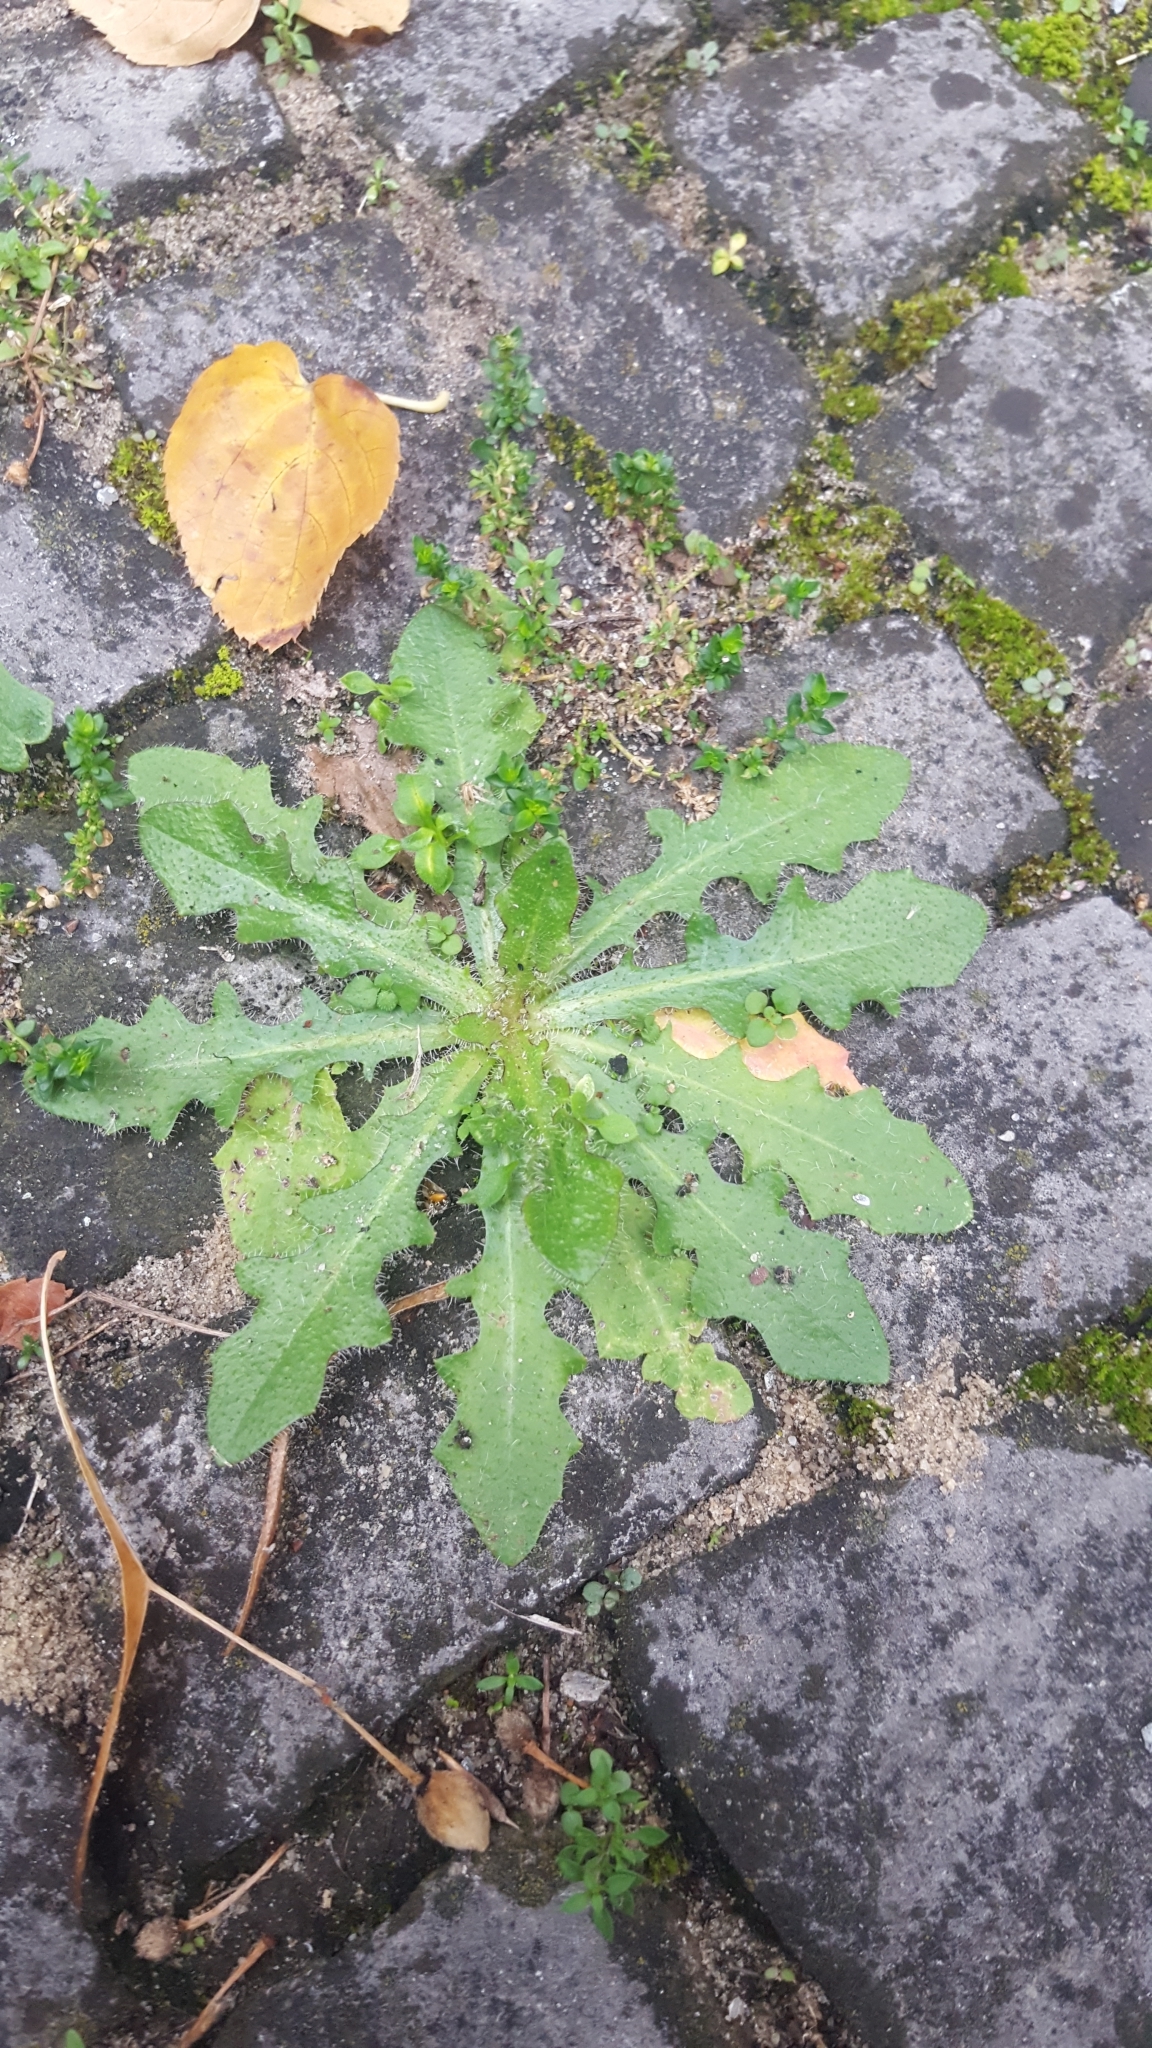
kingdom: Plantae
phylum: Tracheophyta
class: Magnoliopsida
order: Asterales
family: Asteraceae
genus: Hypochaeris
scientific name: Hypochaeris radicata
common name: Flatweed
